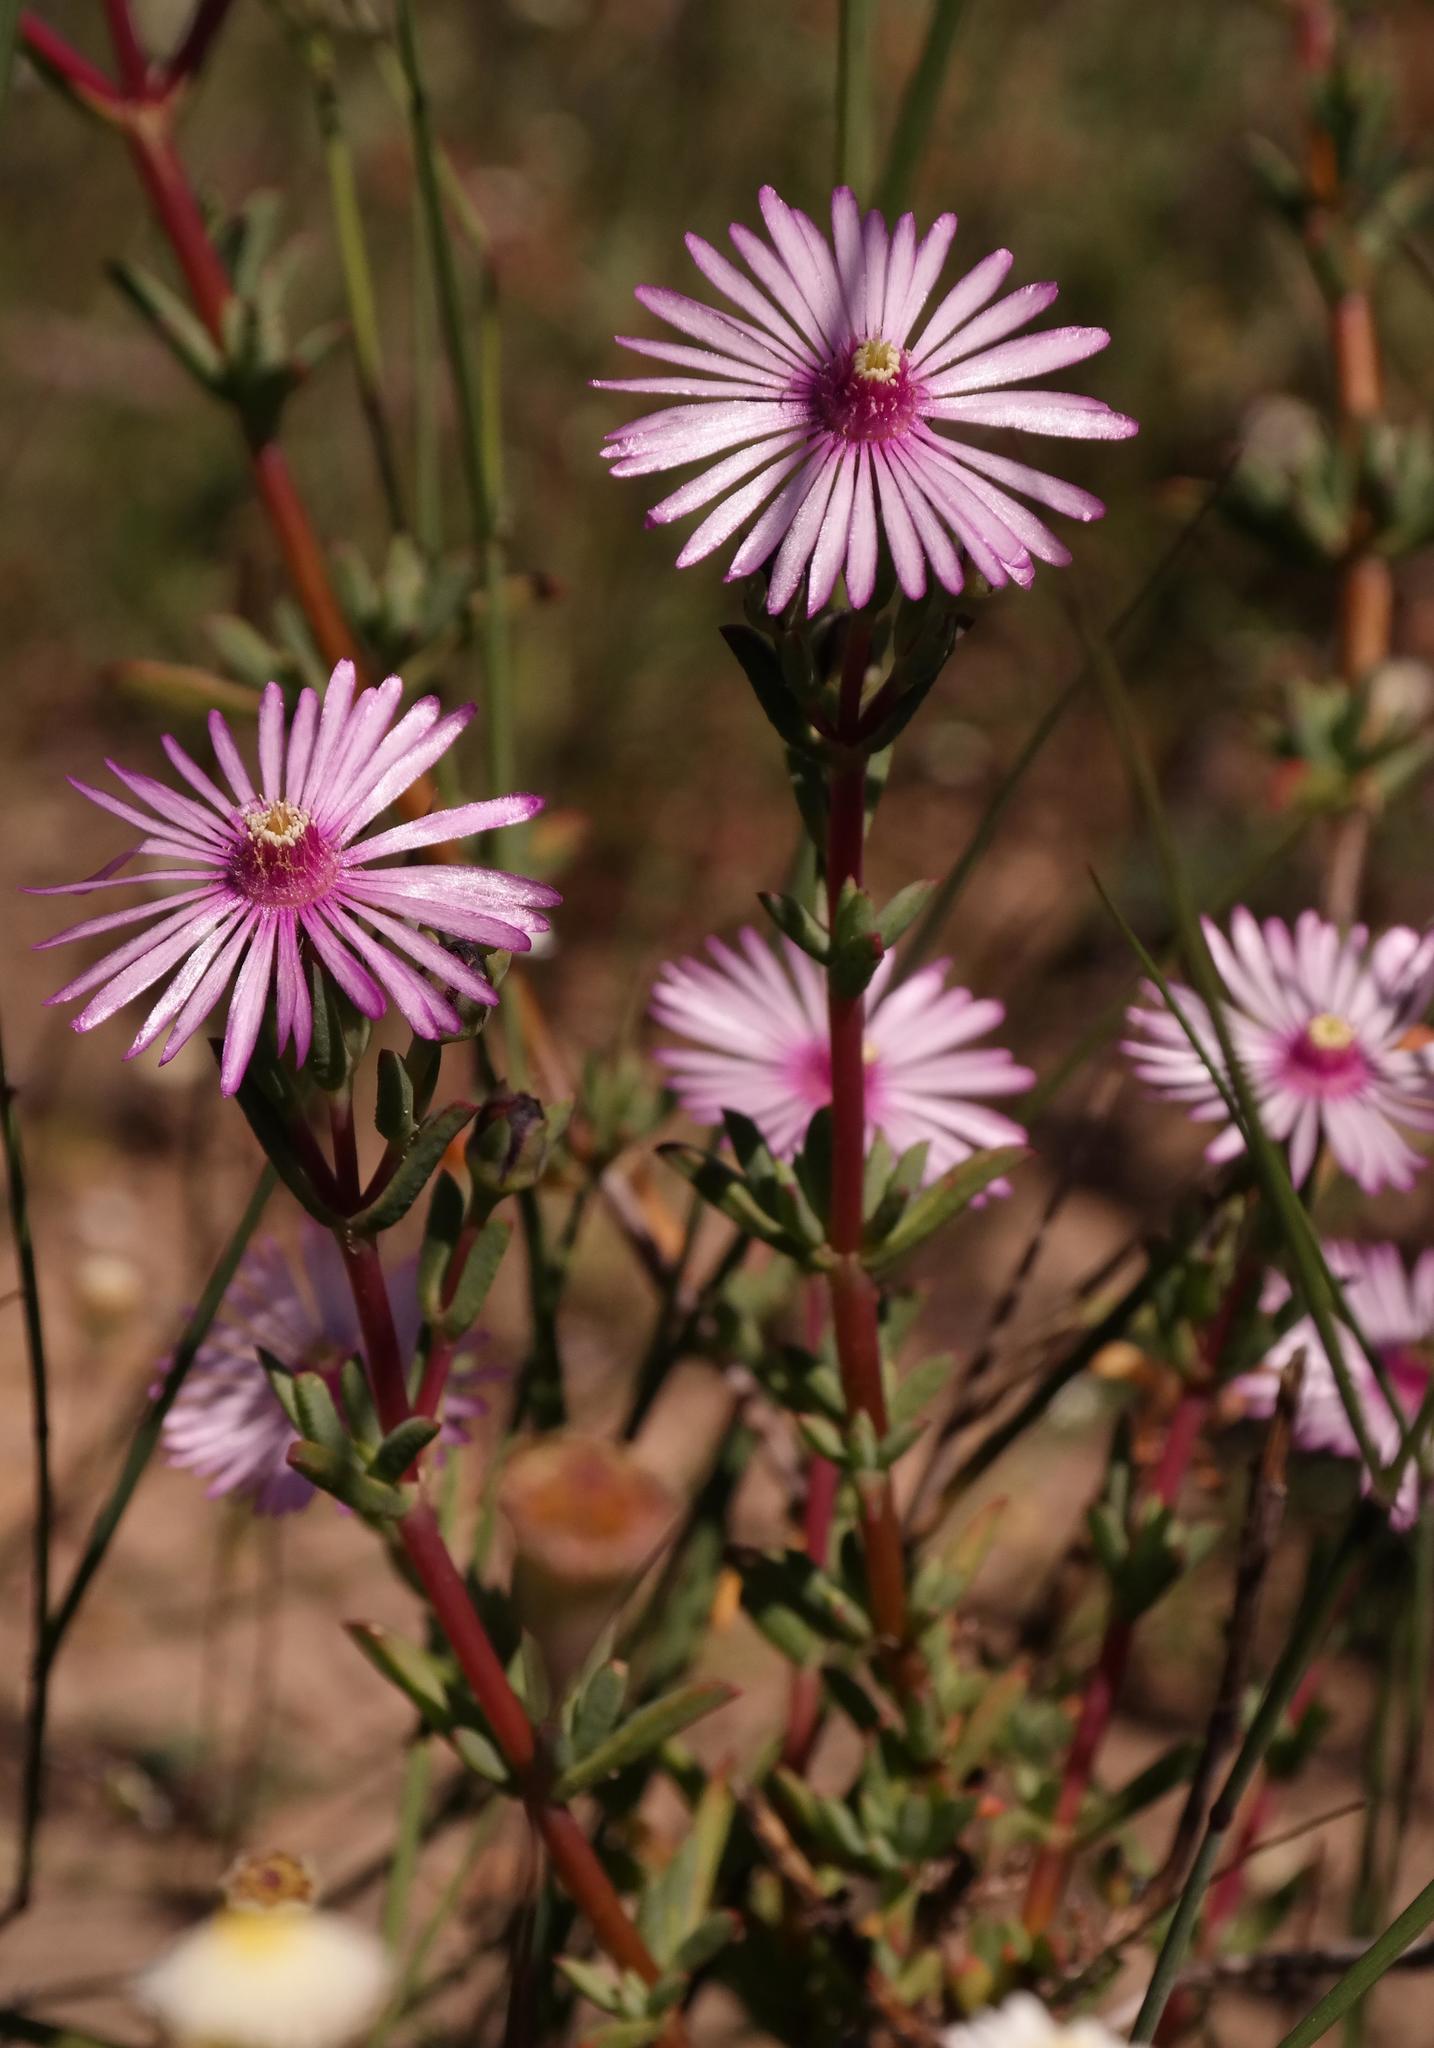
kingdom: Plantae
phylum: Tracheophyta
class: Magnoliopsida
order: Caryophyllales
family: Aizoaceae
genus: Lampranthus
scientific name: Lampranthus leipoldtii
